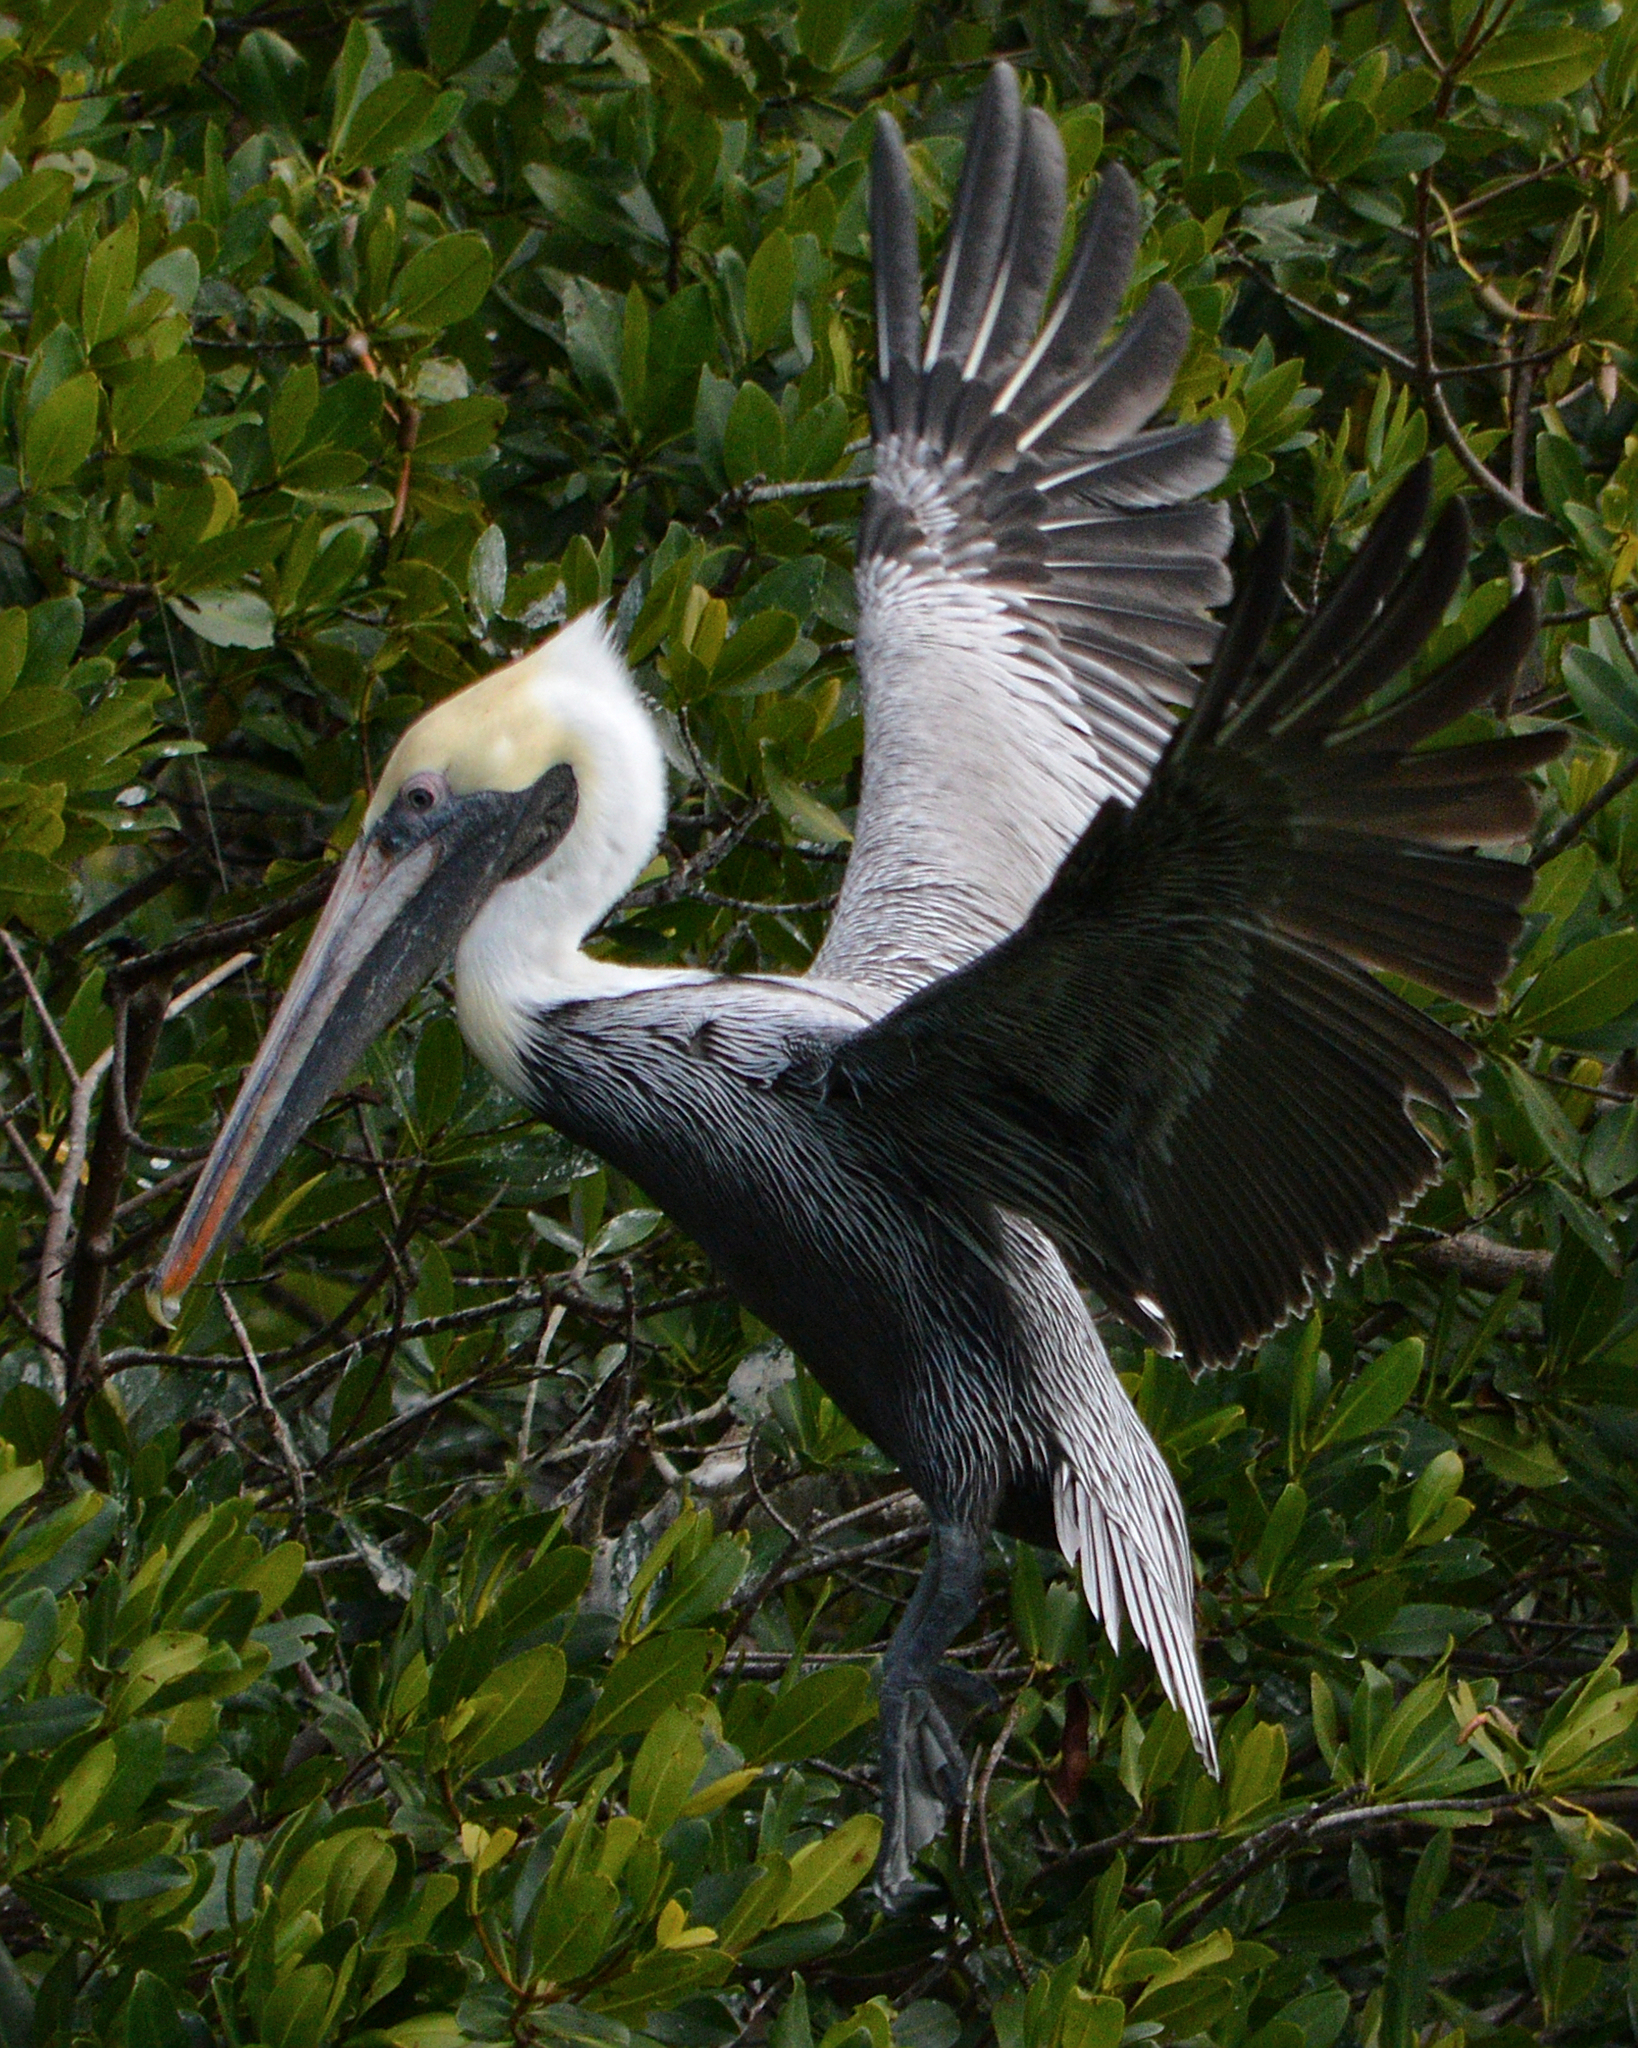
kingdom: Animalia
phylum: Chordata
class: Aves
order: Pelecaniformes
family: Pelecanidae
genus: Pelecanus
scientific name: Pelecanus occidentalis
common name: Brown pelican
